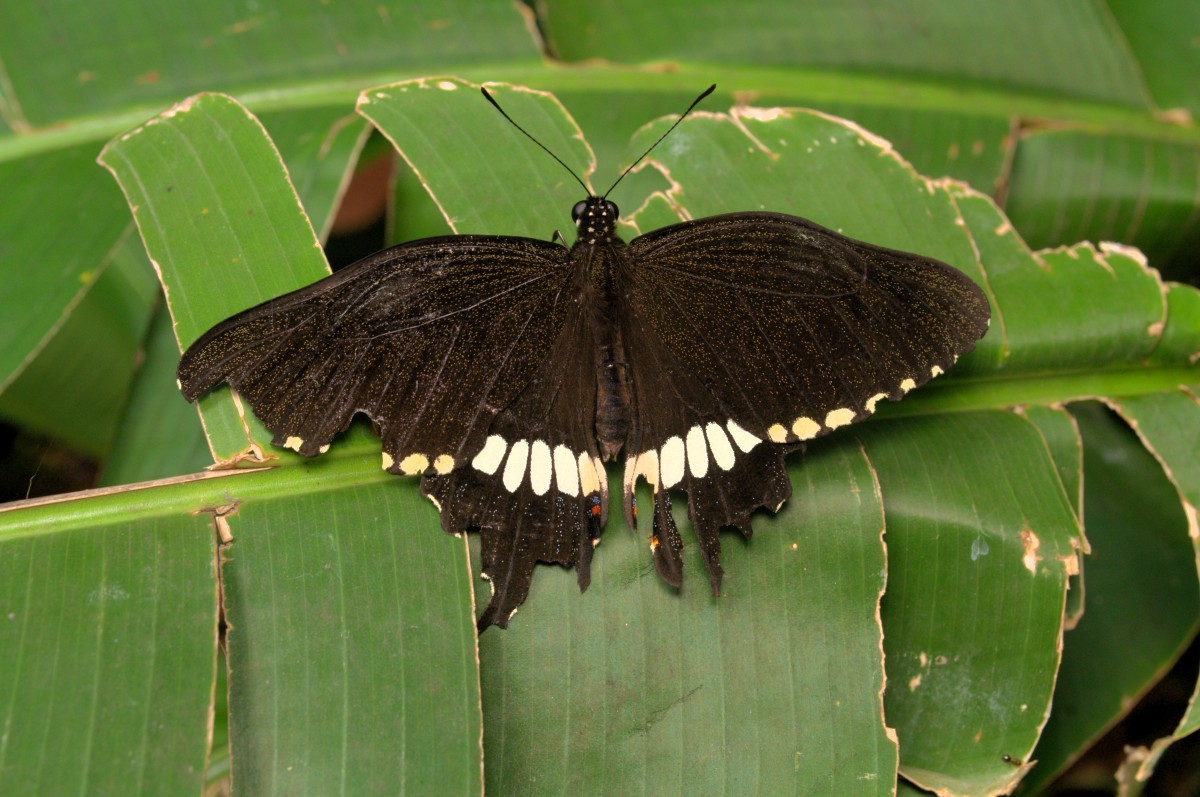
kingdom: Animalia
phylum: Arthropoda
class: Insecta
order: Lepidoptera
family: Papilionidae
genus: Papilio
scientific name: Papilio polytes
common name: Common mormon
